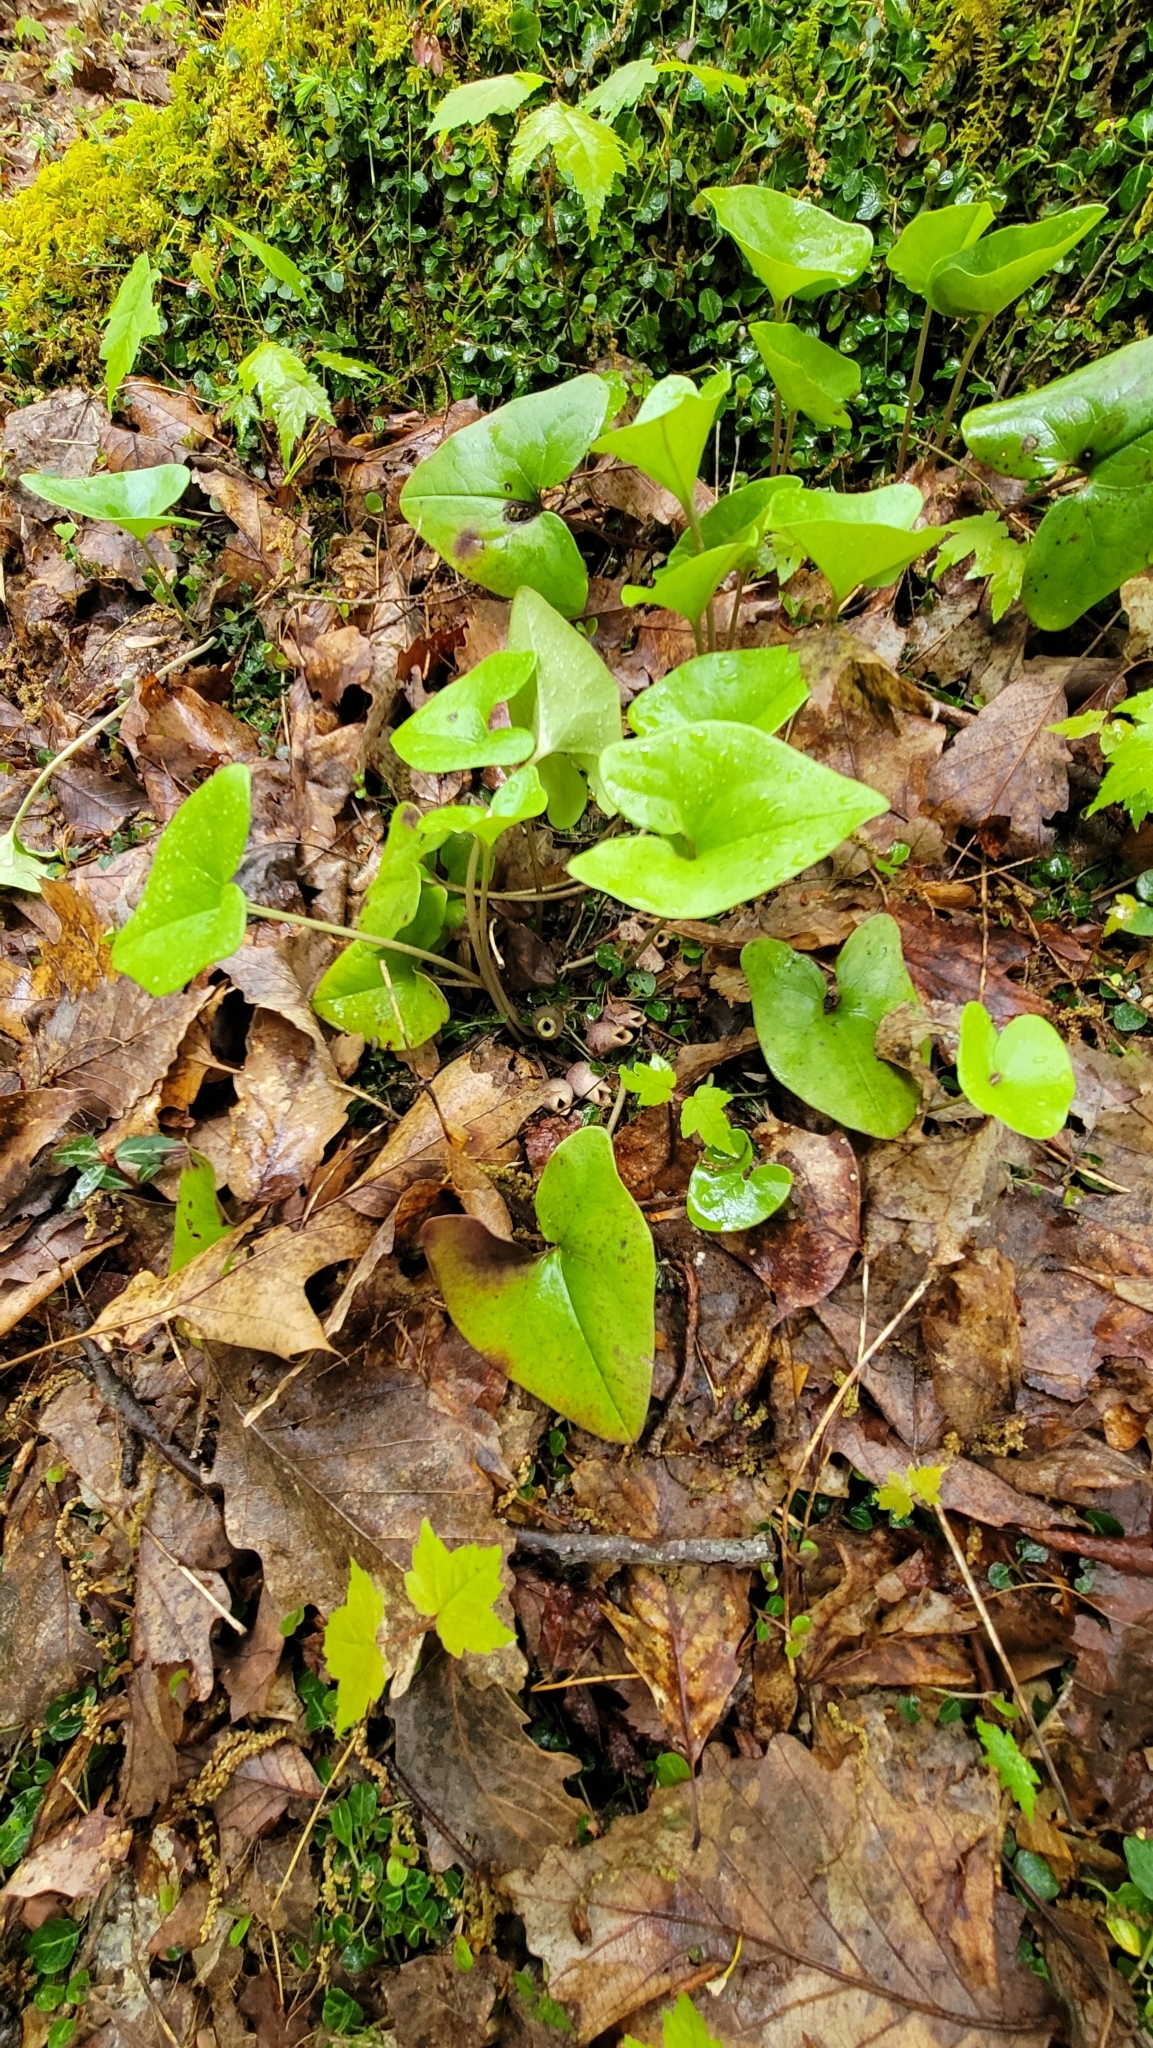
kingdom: Plantae
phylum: Tracheophyta
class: Magnoliopsida
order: Piperales
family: Aristolochiaceae
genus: Hexastylis
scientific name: Hexastylis arifolia
